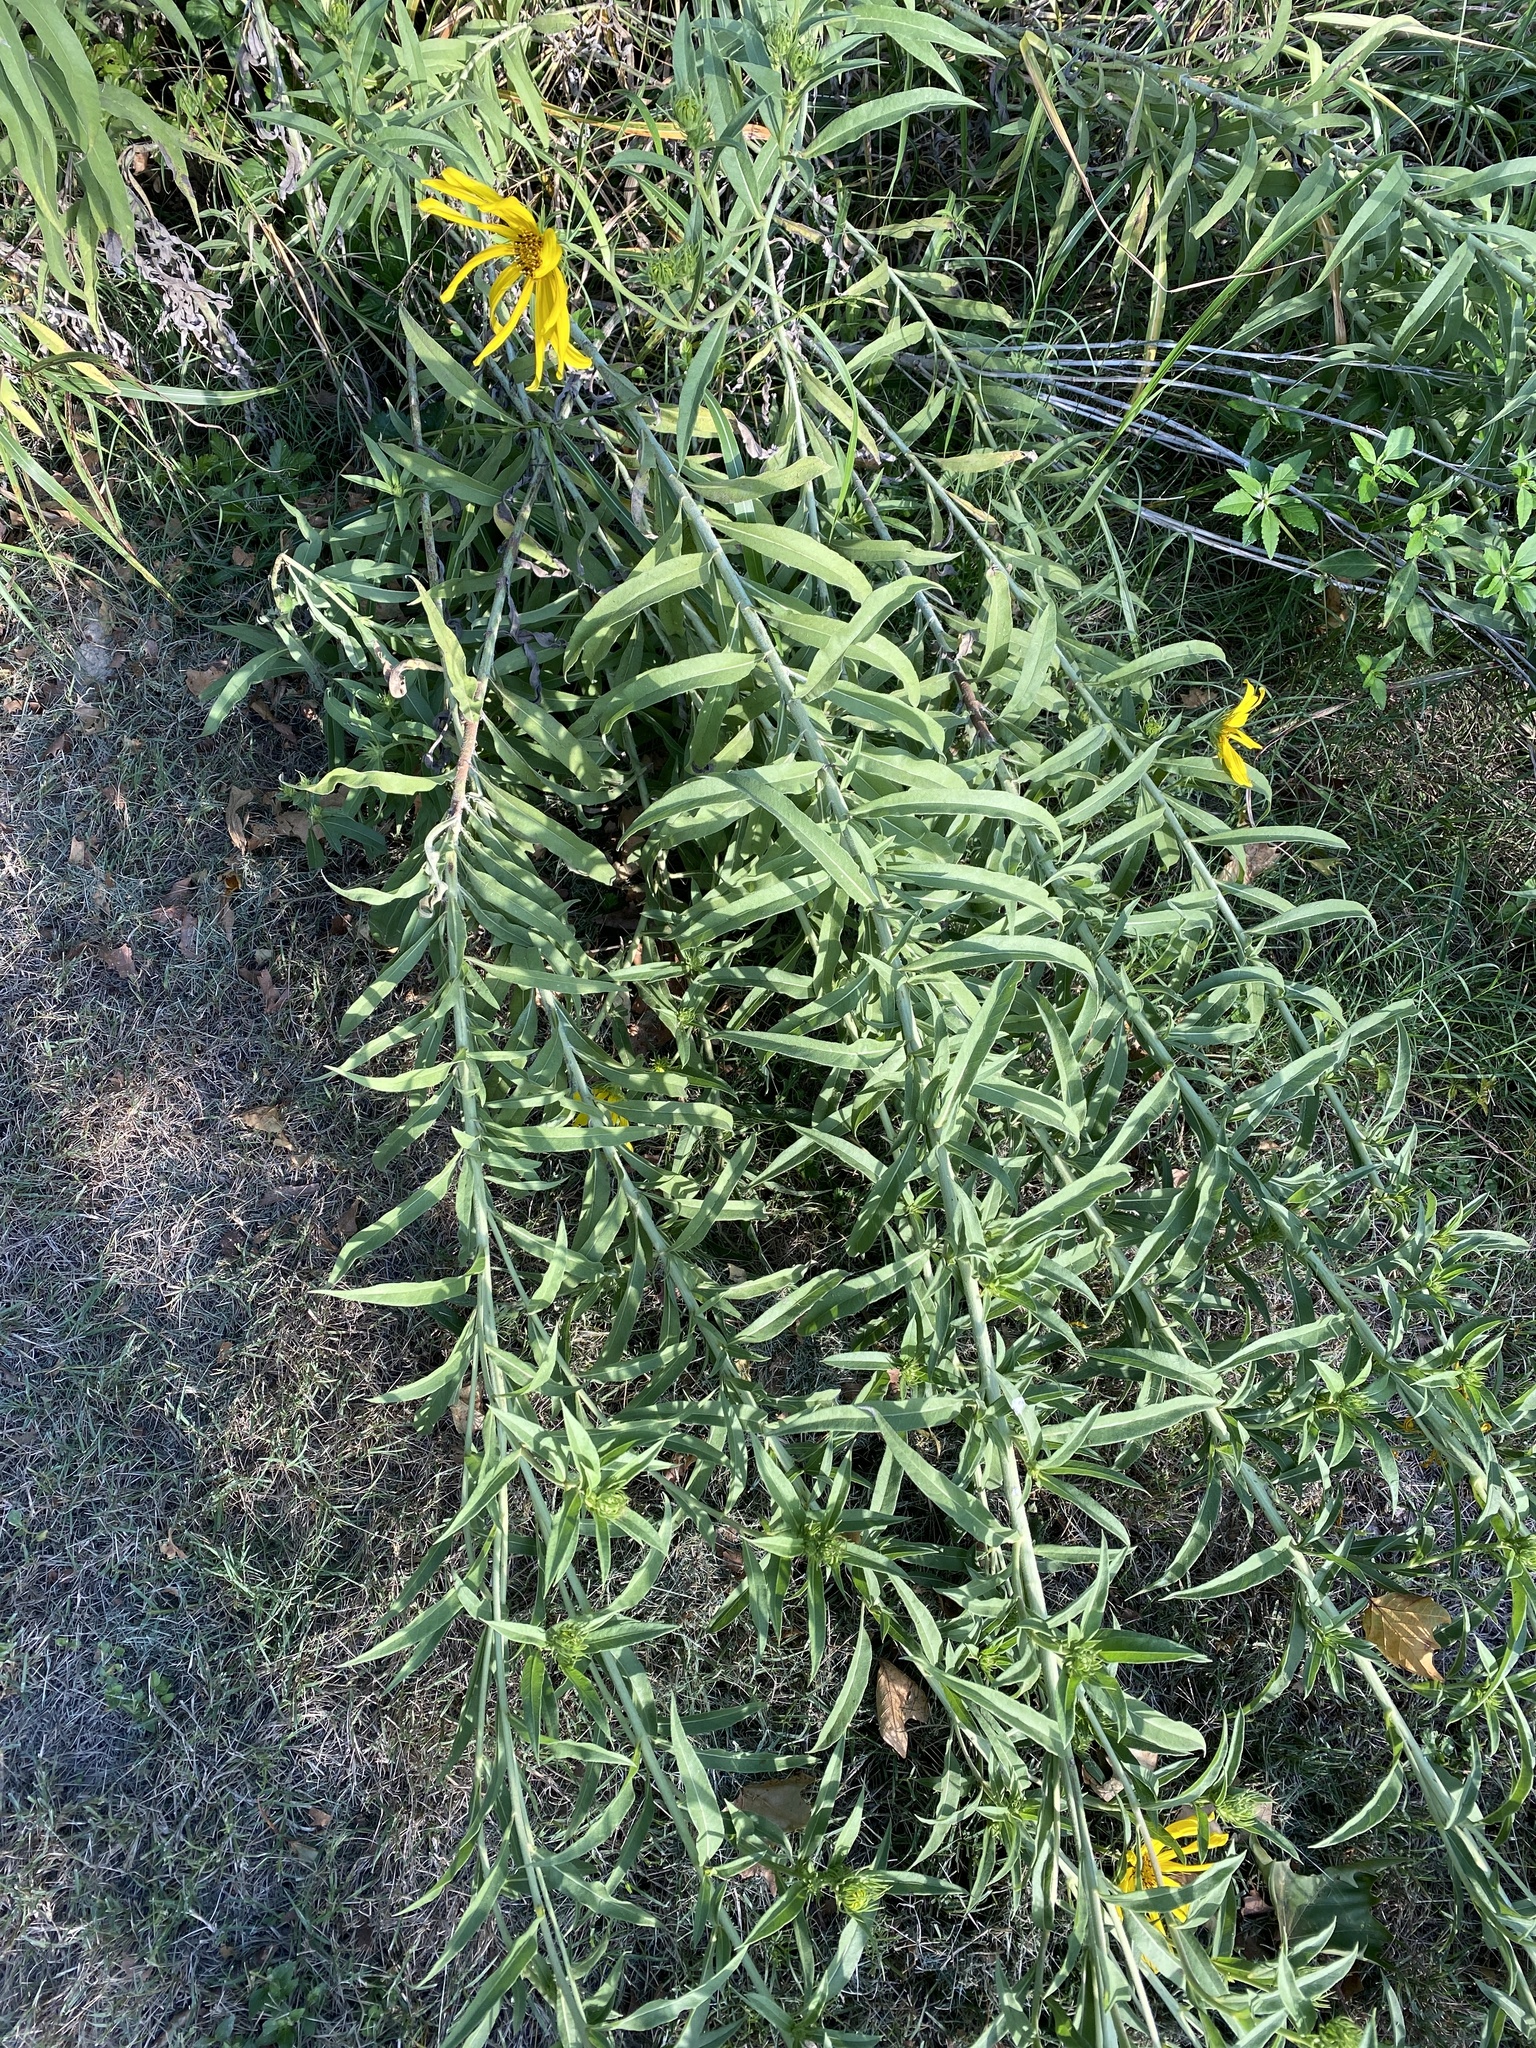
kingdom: Plantae
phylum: Tracheophyta
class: Magnoliopsida
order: Asterales
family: Asteraceae
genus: Helianthus
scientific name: Helianthus maximiliani
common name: Maximilian's sunflower
